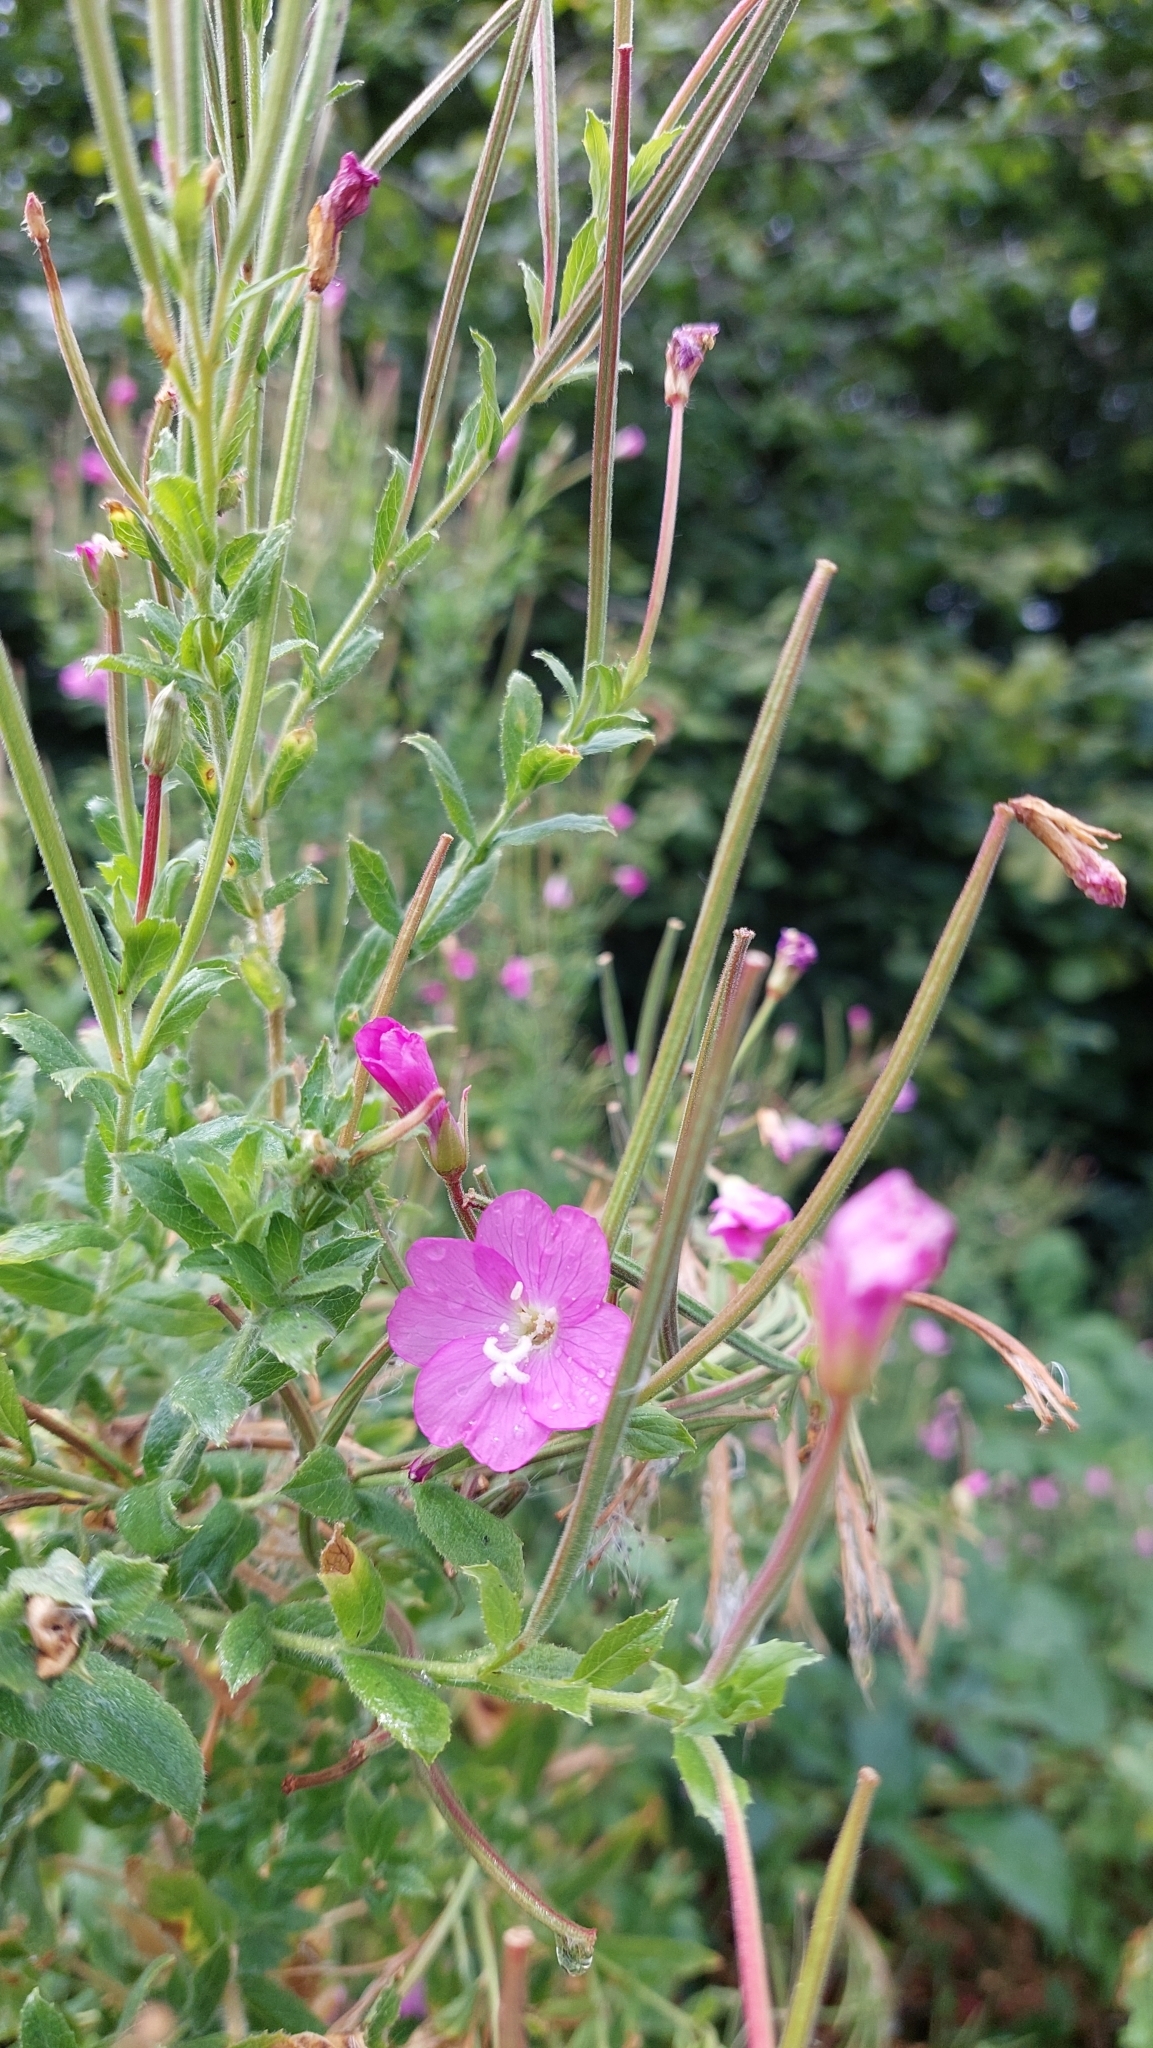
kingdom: Plantae
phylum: Tracheophyta
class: Magnoliopsida
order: Myrtales
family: Onagraceae
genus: Epilobium
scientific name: Epilobium hirsutum
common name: Great willowherb
